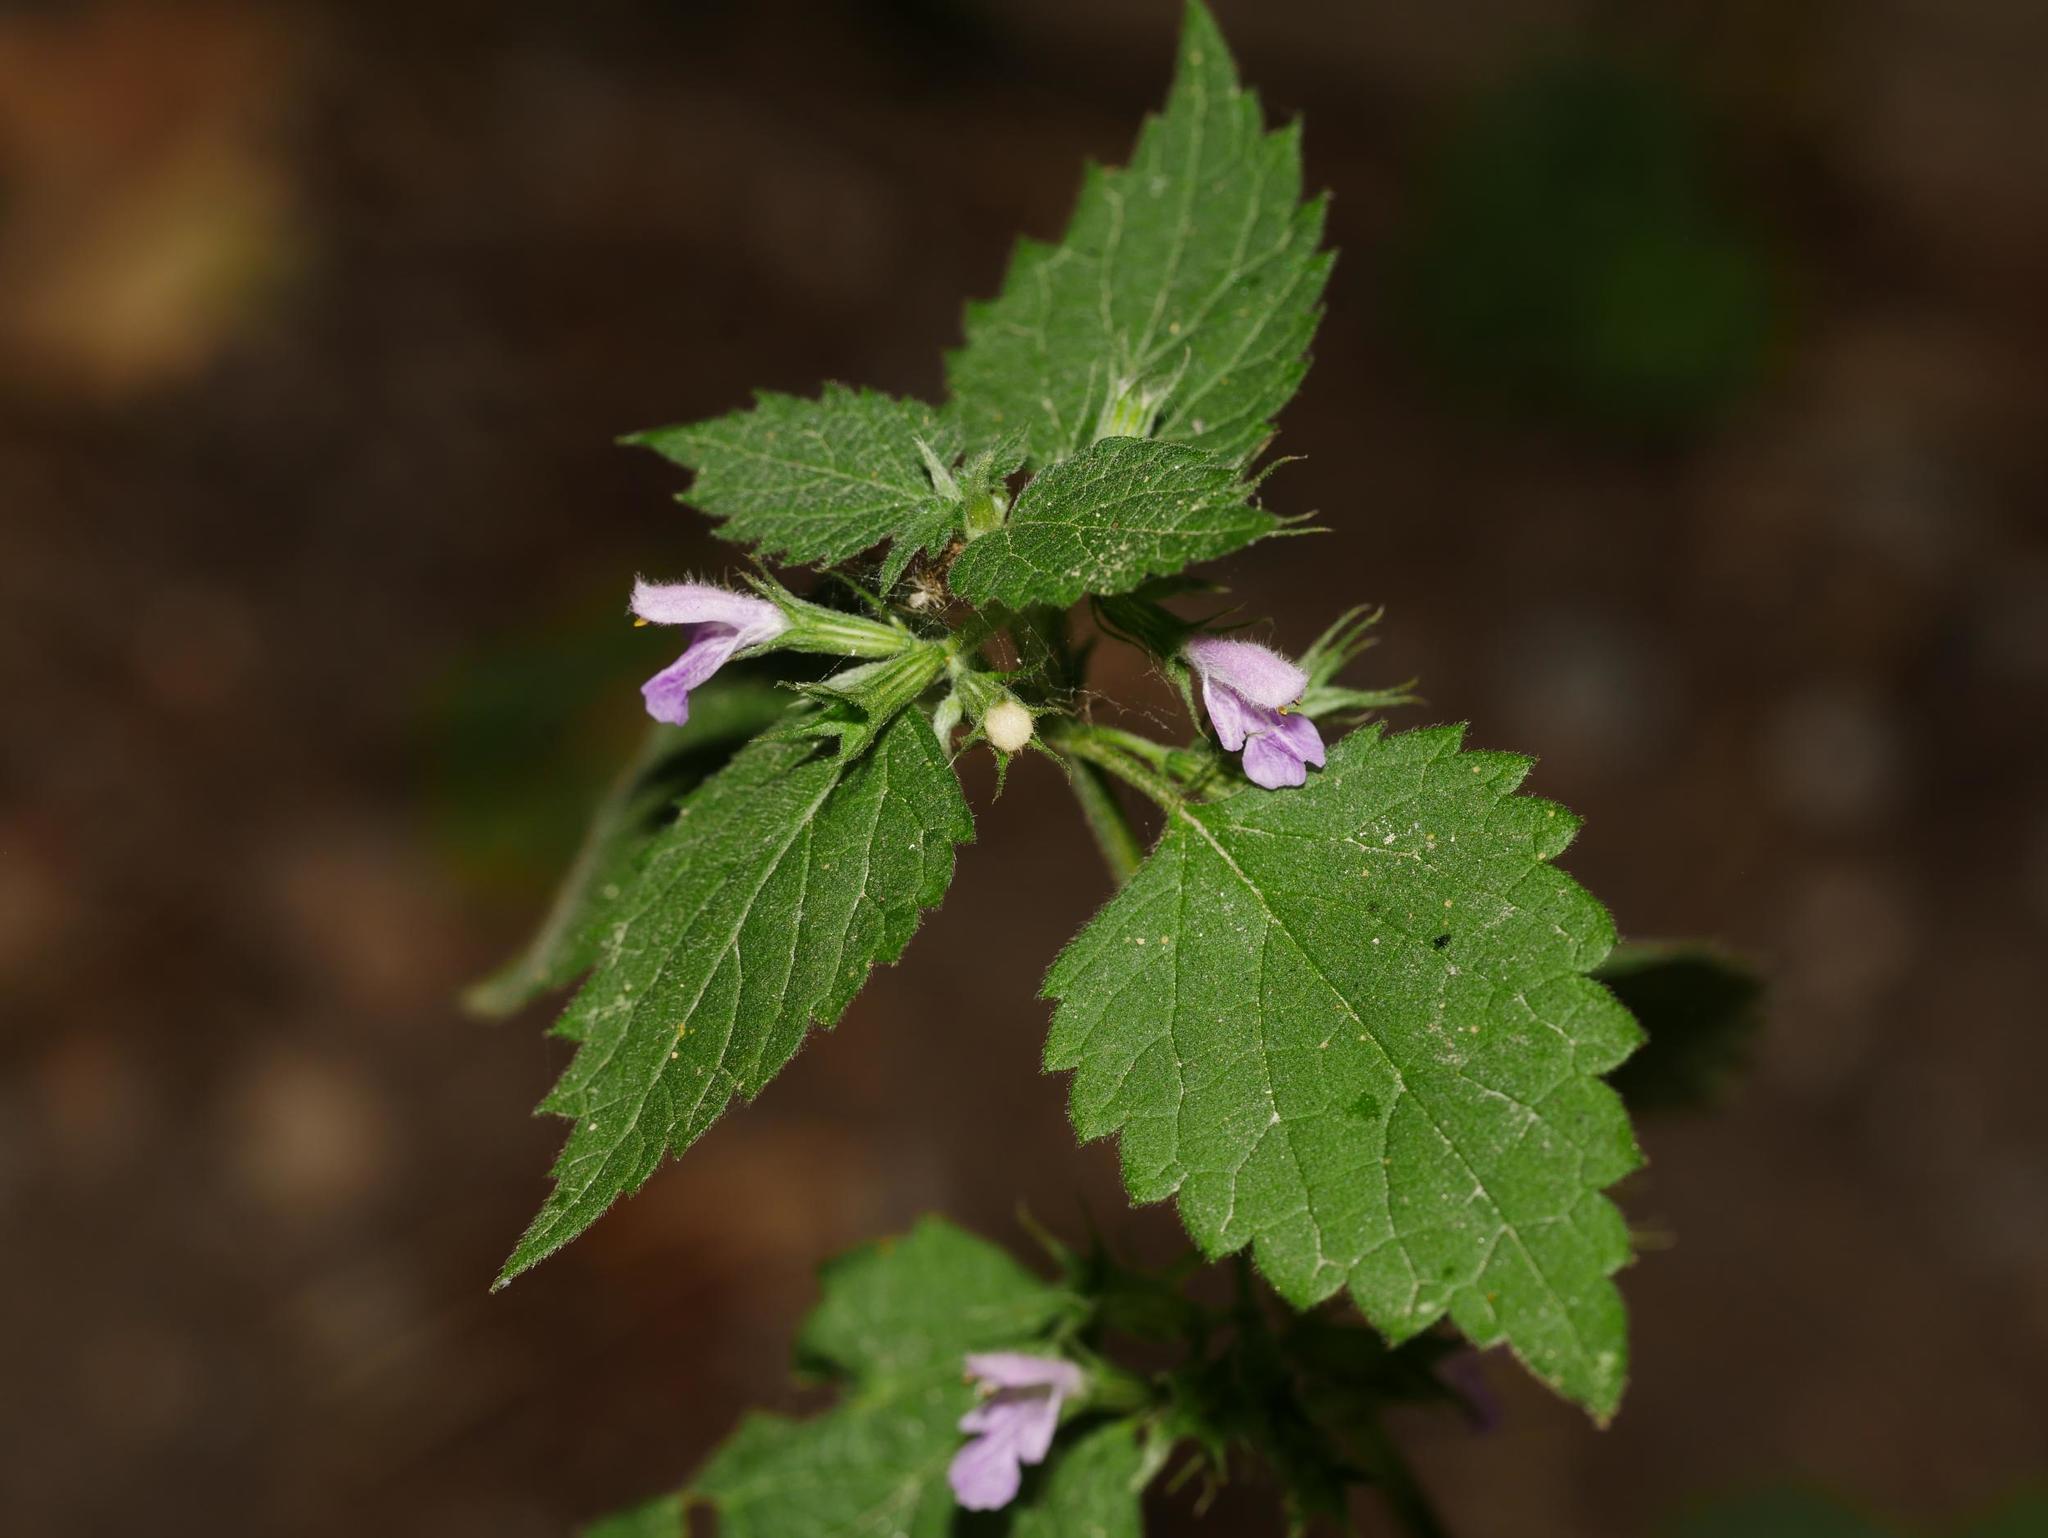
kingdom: Plantae
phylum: Tracheophyta
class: Magnoliopsida
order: Lamiales
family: Lamiaceae
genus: Ballota
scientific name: Ballota nigra
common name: Black horehound
